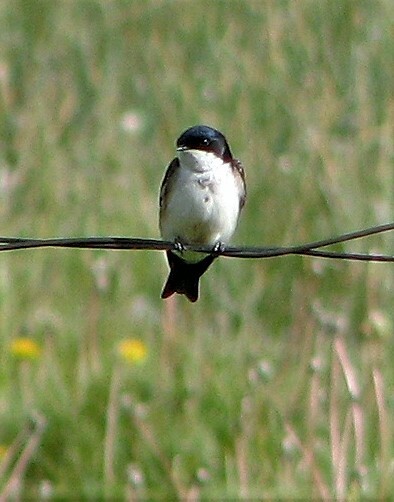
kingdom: Animalia
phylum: Chordata
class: Aves
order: Passeriformes
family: Hirundinidae
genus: Notiochelidon
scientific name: Notiochelidon cyanoleuca
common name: Blue-and-white swallow
